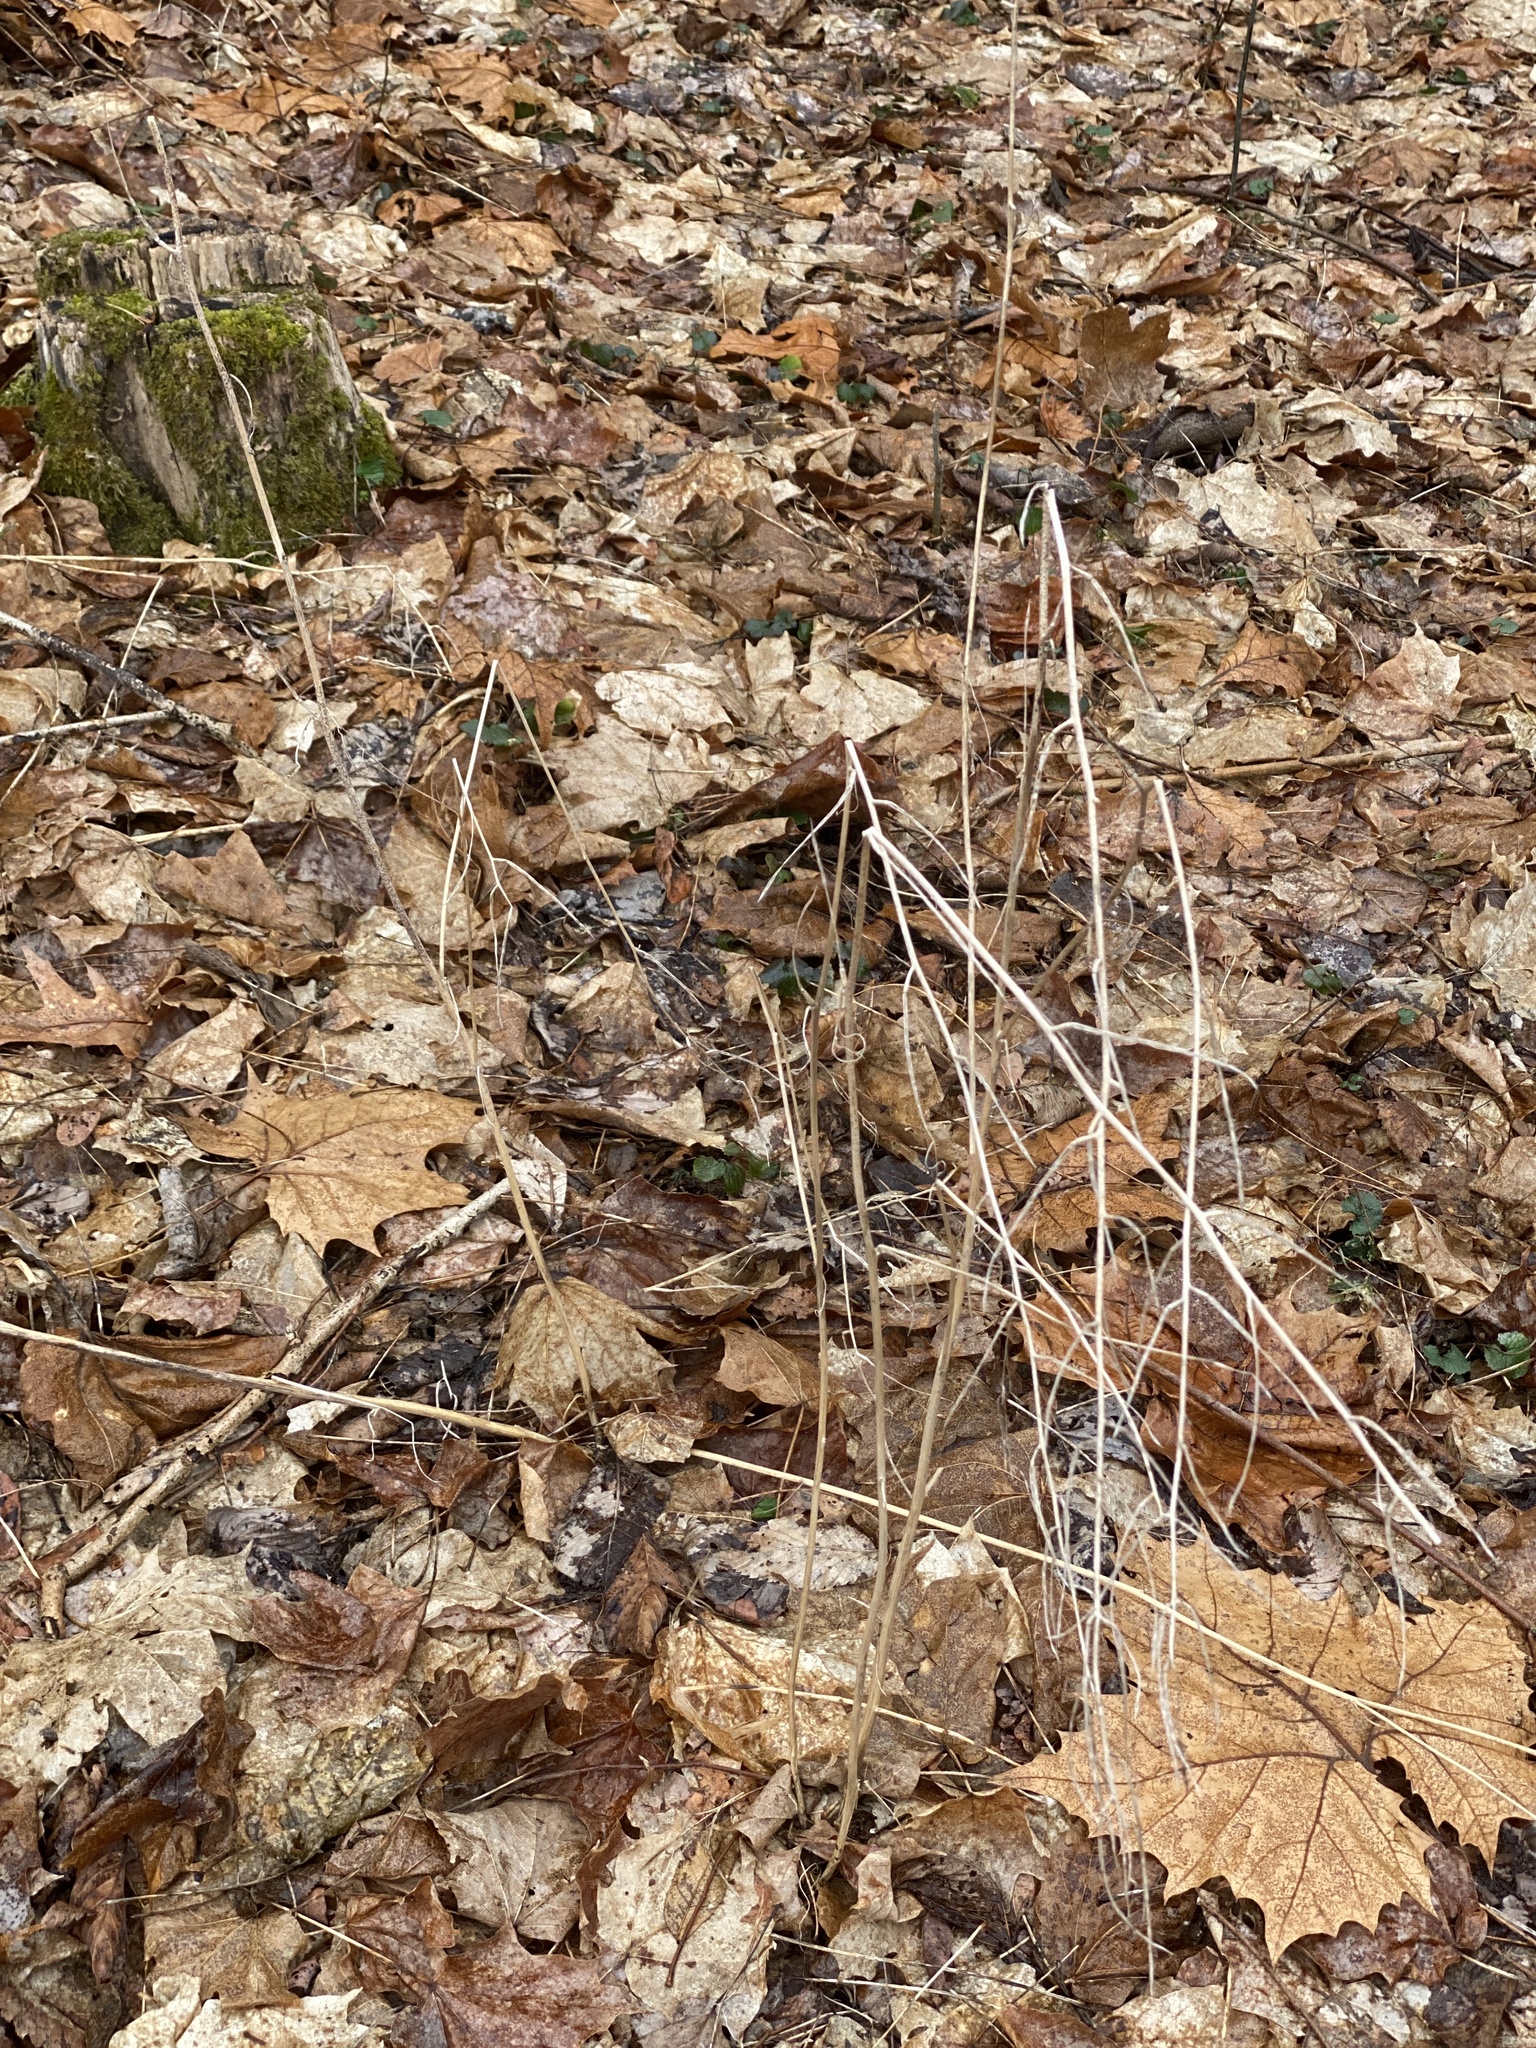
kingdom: Plantae
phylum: Tracheophyta
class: Magnoliopsida
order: Brassicales
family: Brassicaceae
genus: Alliaria
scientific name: Alliaria petiolata
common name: Garlic mustard
